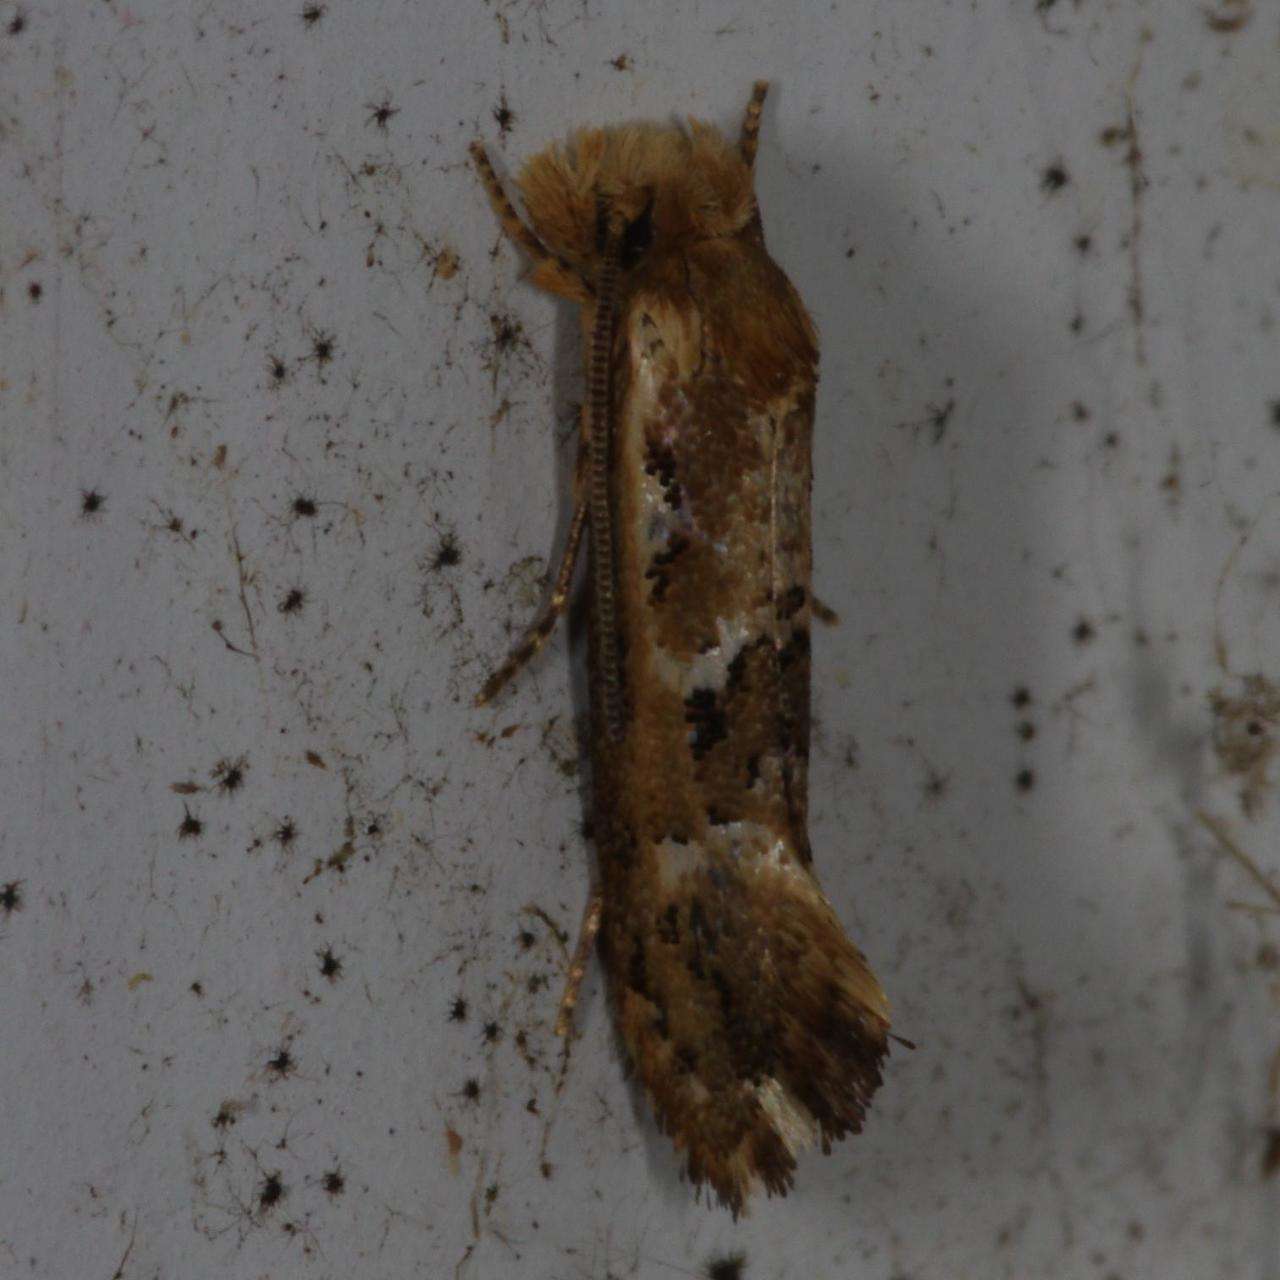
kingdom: Animalia
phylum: Arthropoda
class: Insecta
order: Lepidoptera
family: Tineidae
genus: Moerarchis
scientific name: Moerarchis inconcisella
